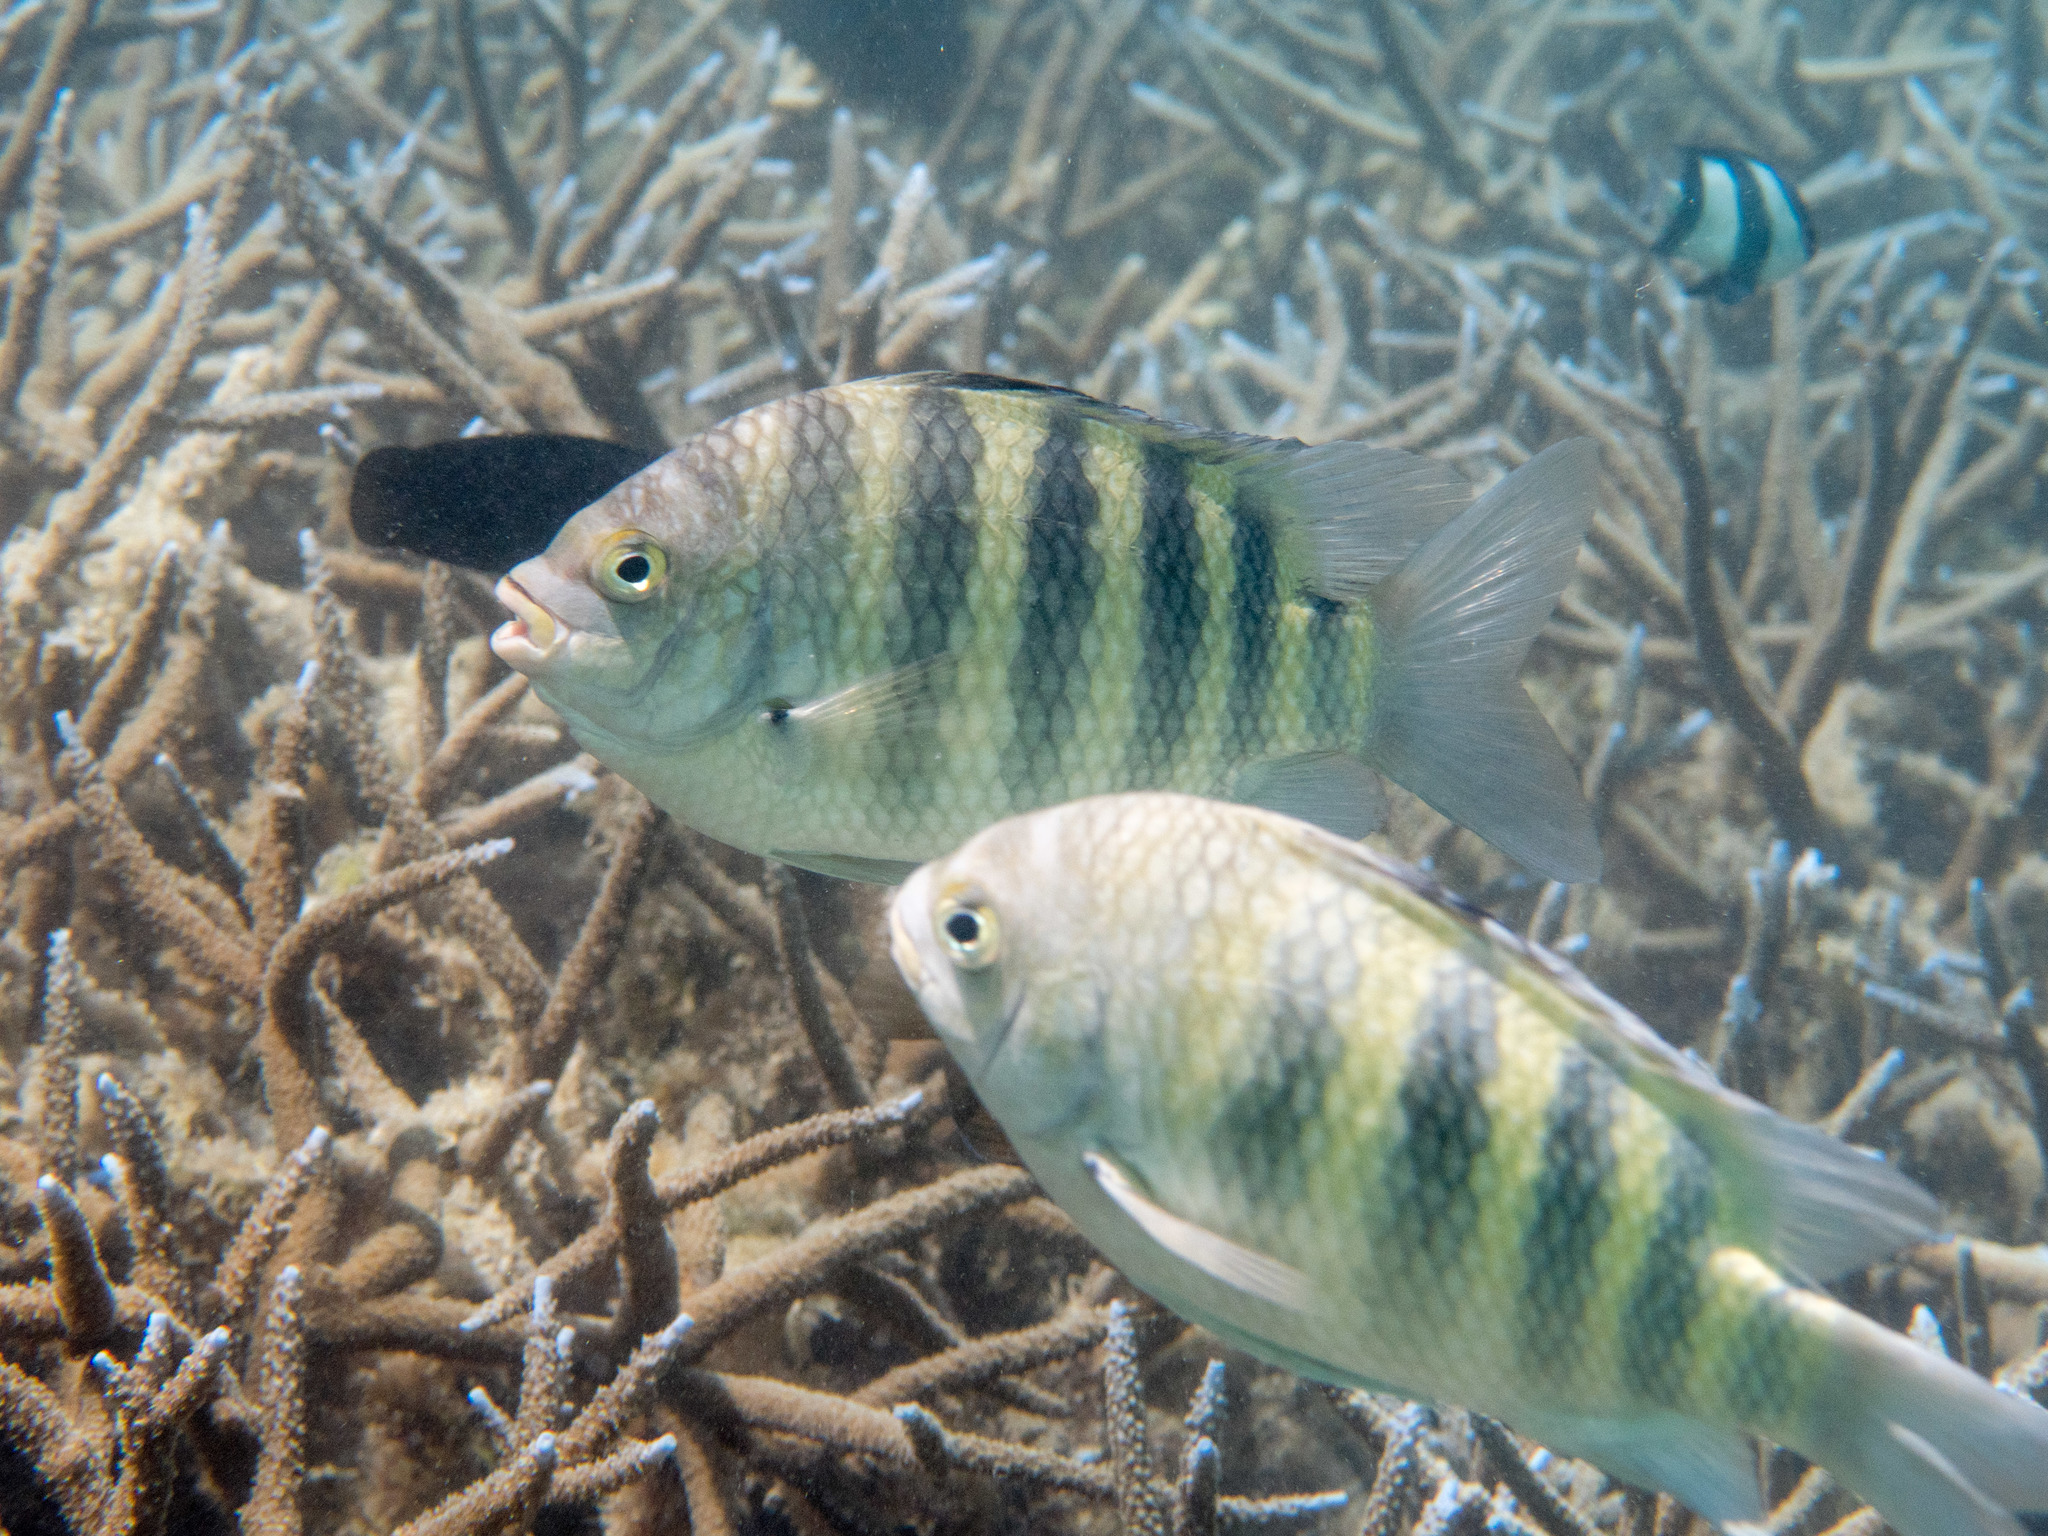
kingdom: Animalia
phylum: Chordata
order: Perciformes
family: Pomacentridae
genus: Abudefduf
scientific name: Abudefduf septemfasciatus
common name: Banded sergeant
